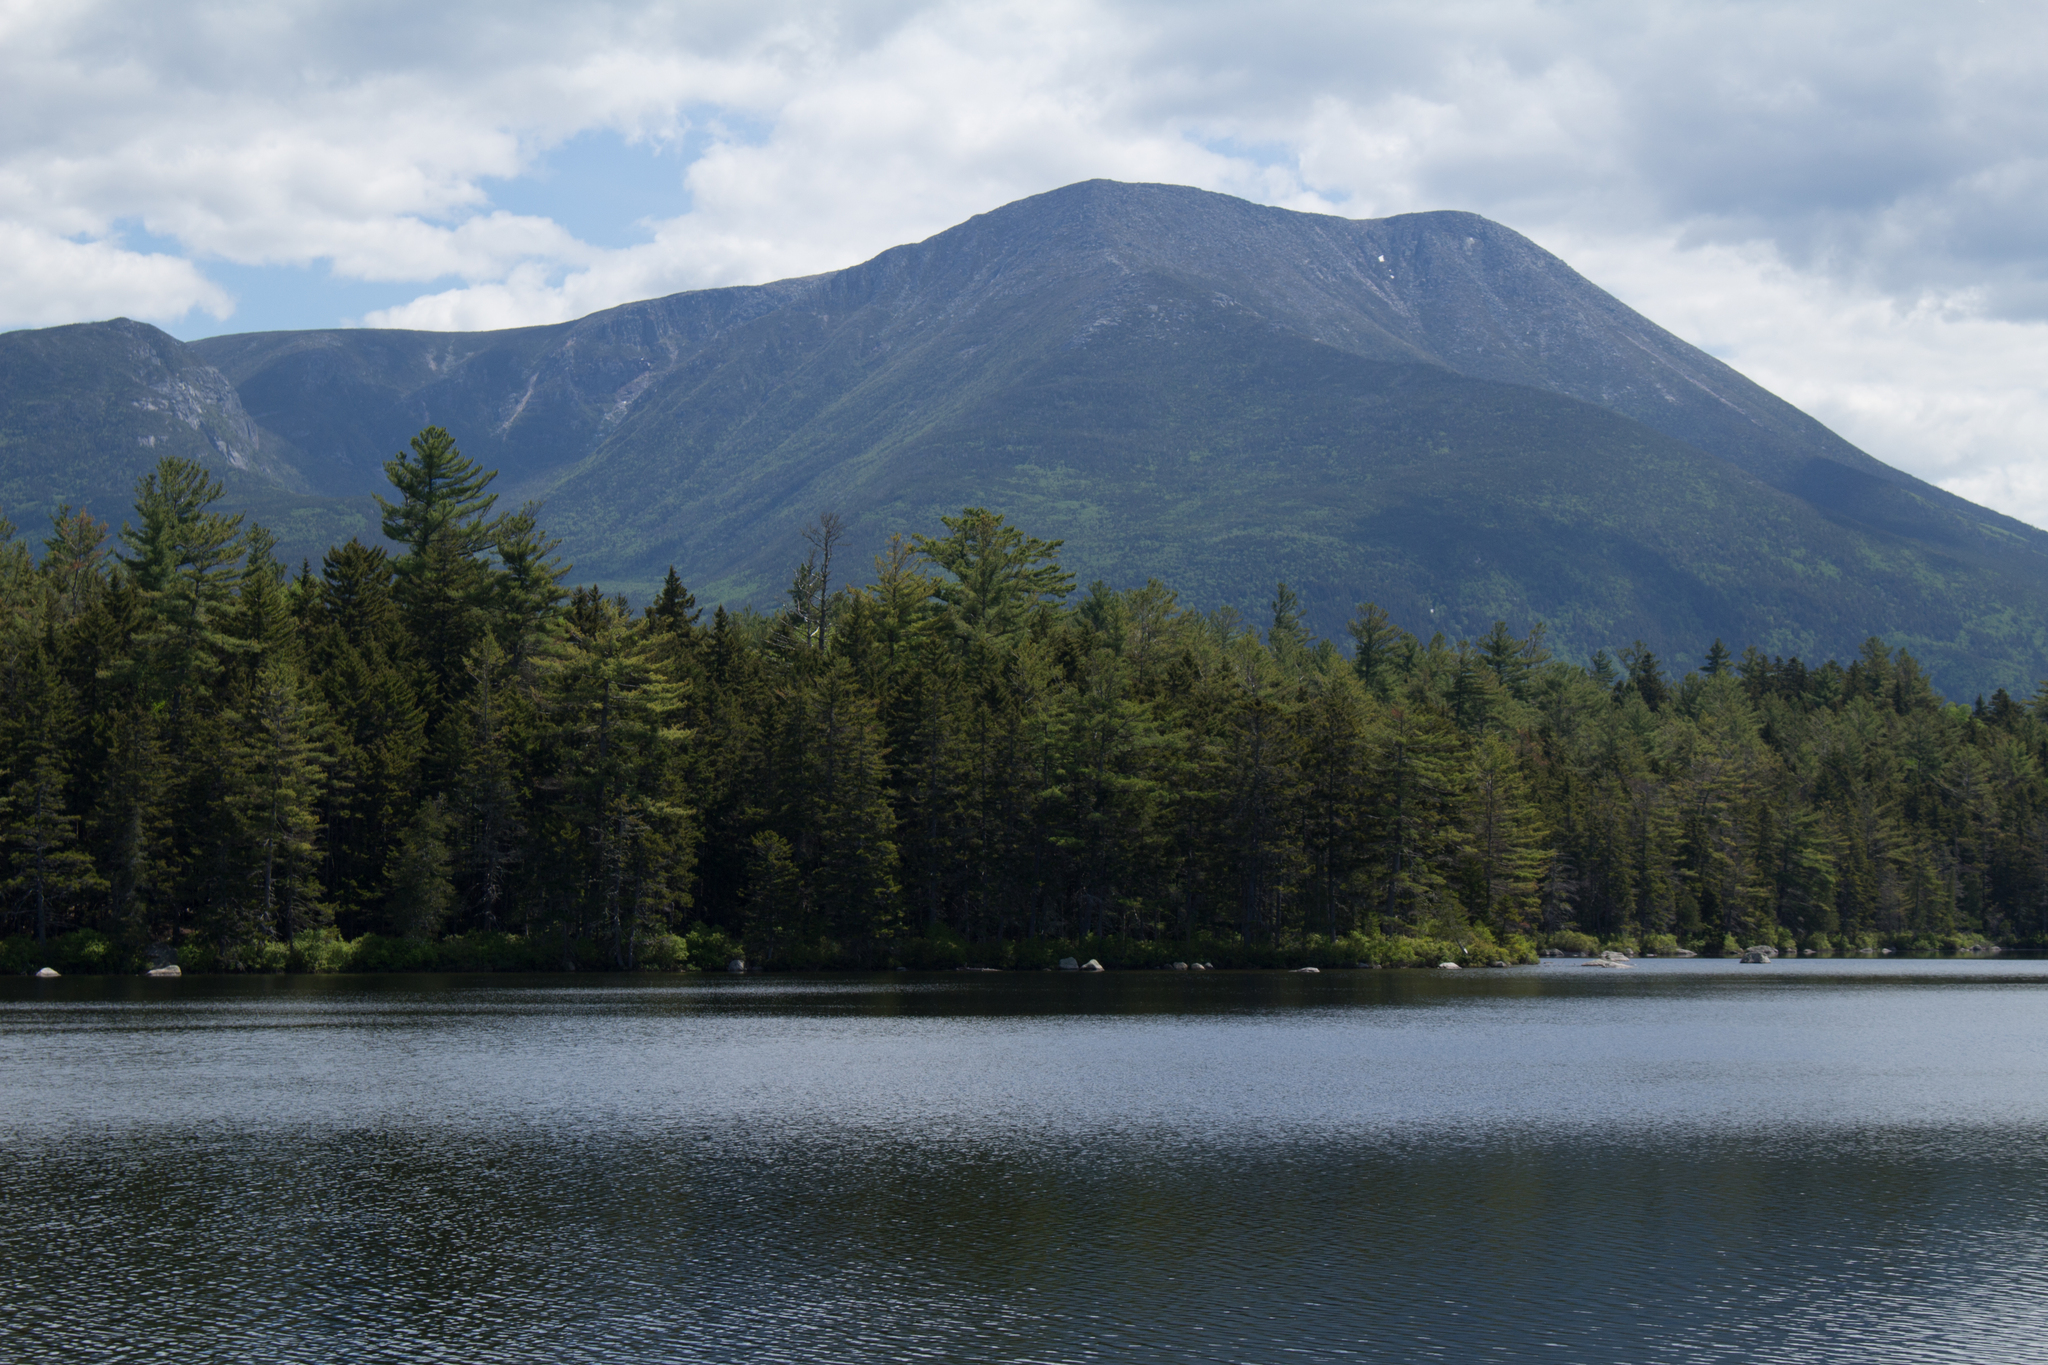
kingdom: Plantae
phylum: Tracheophyta
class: Pinopsida
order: Pinales
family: Pinaceae
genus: Pinus
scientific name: Pinus strobus
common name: Weymouth pine
